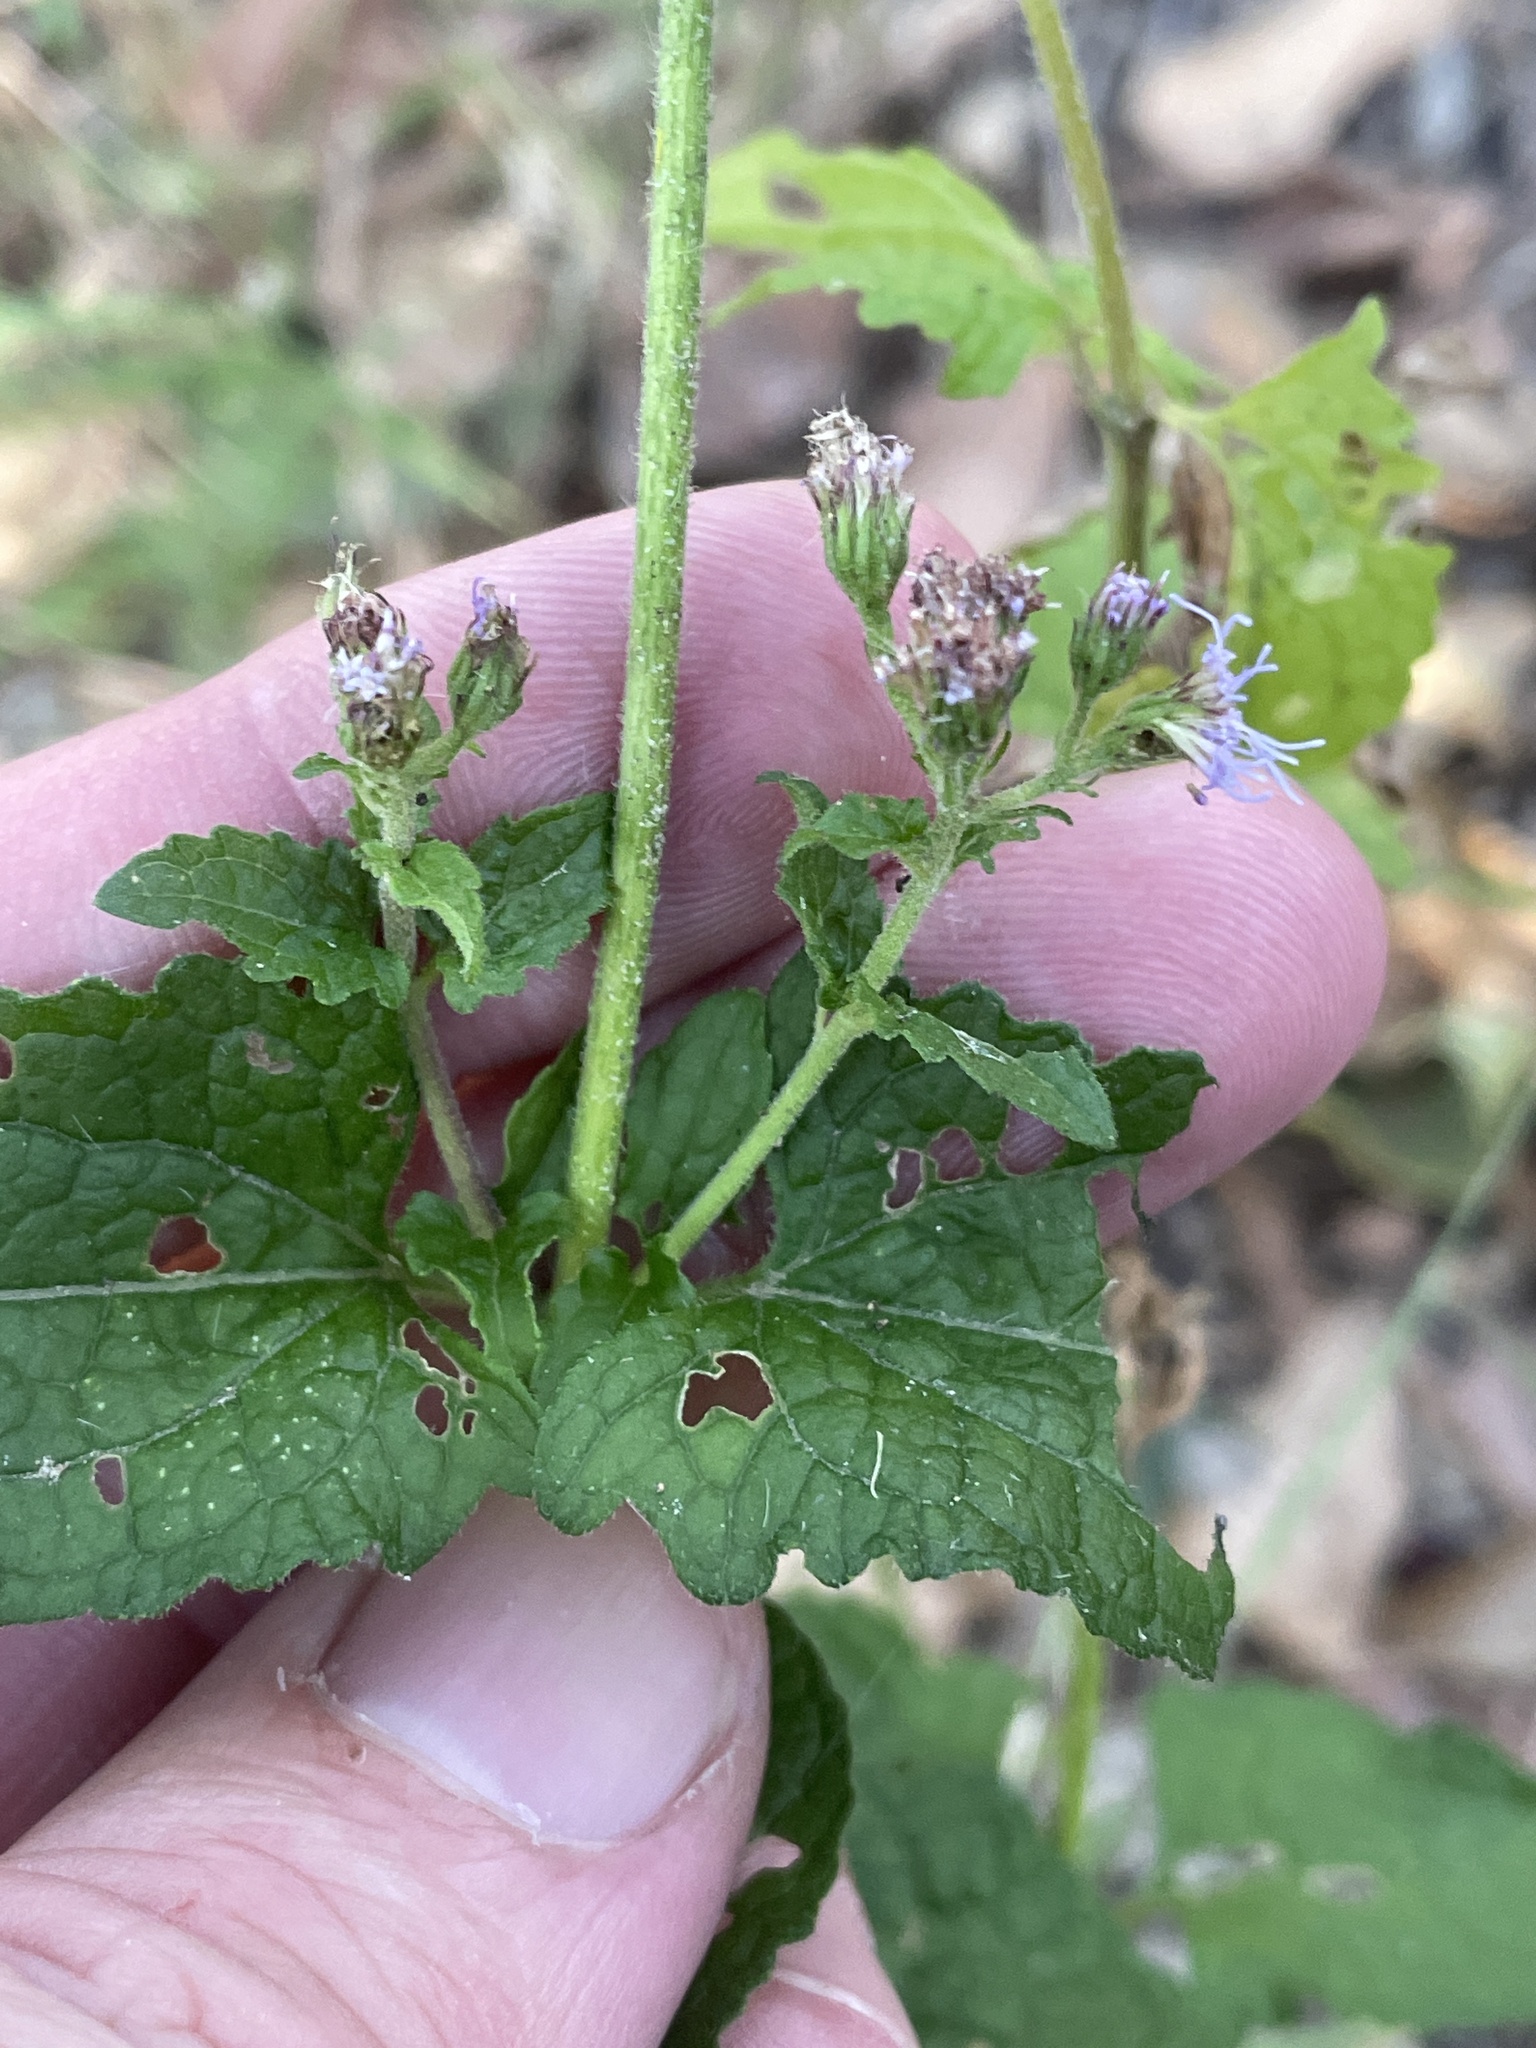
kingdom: Plantae
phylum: Tracheophyta
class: Magnoliopsida
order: Asterales
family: Asteraceae
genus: Conoclinium
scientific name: Conoclinium coelestinum
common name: Blue mistflower
